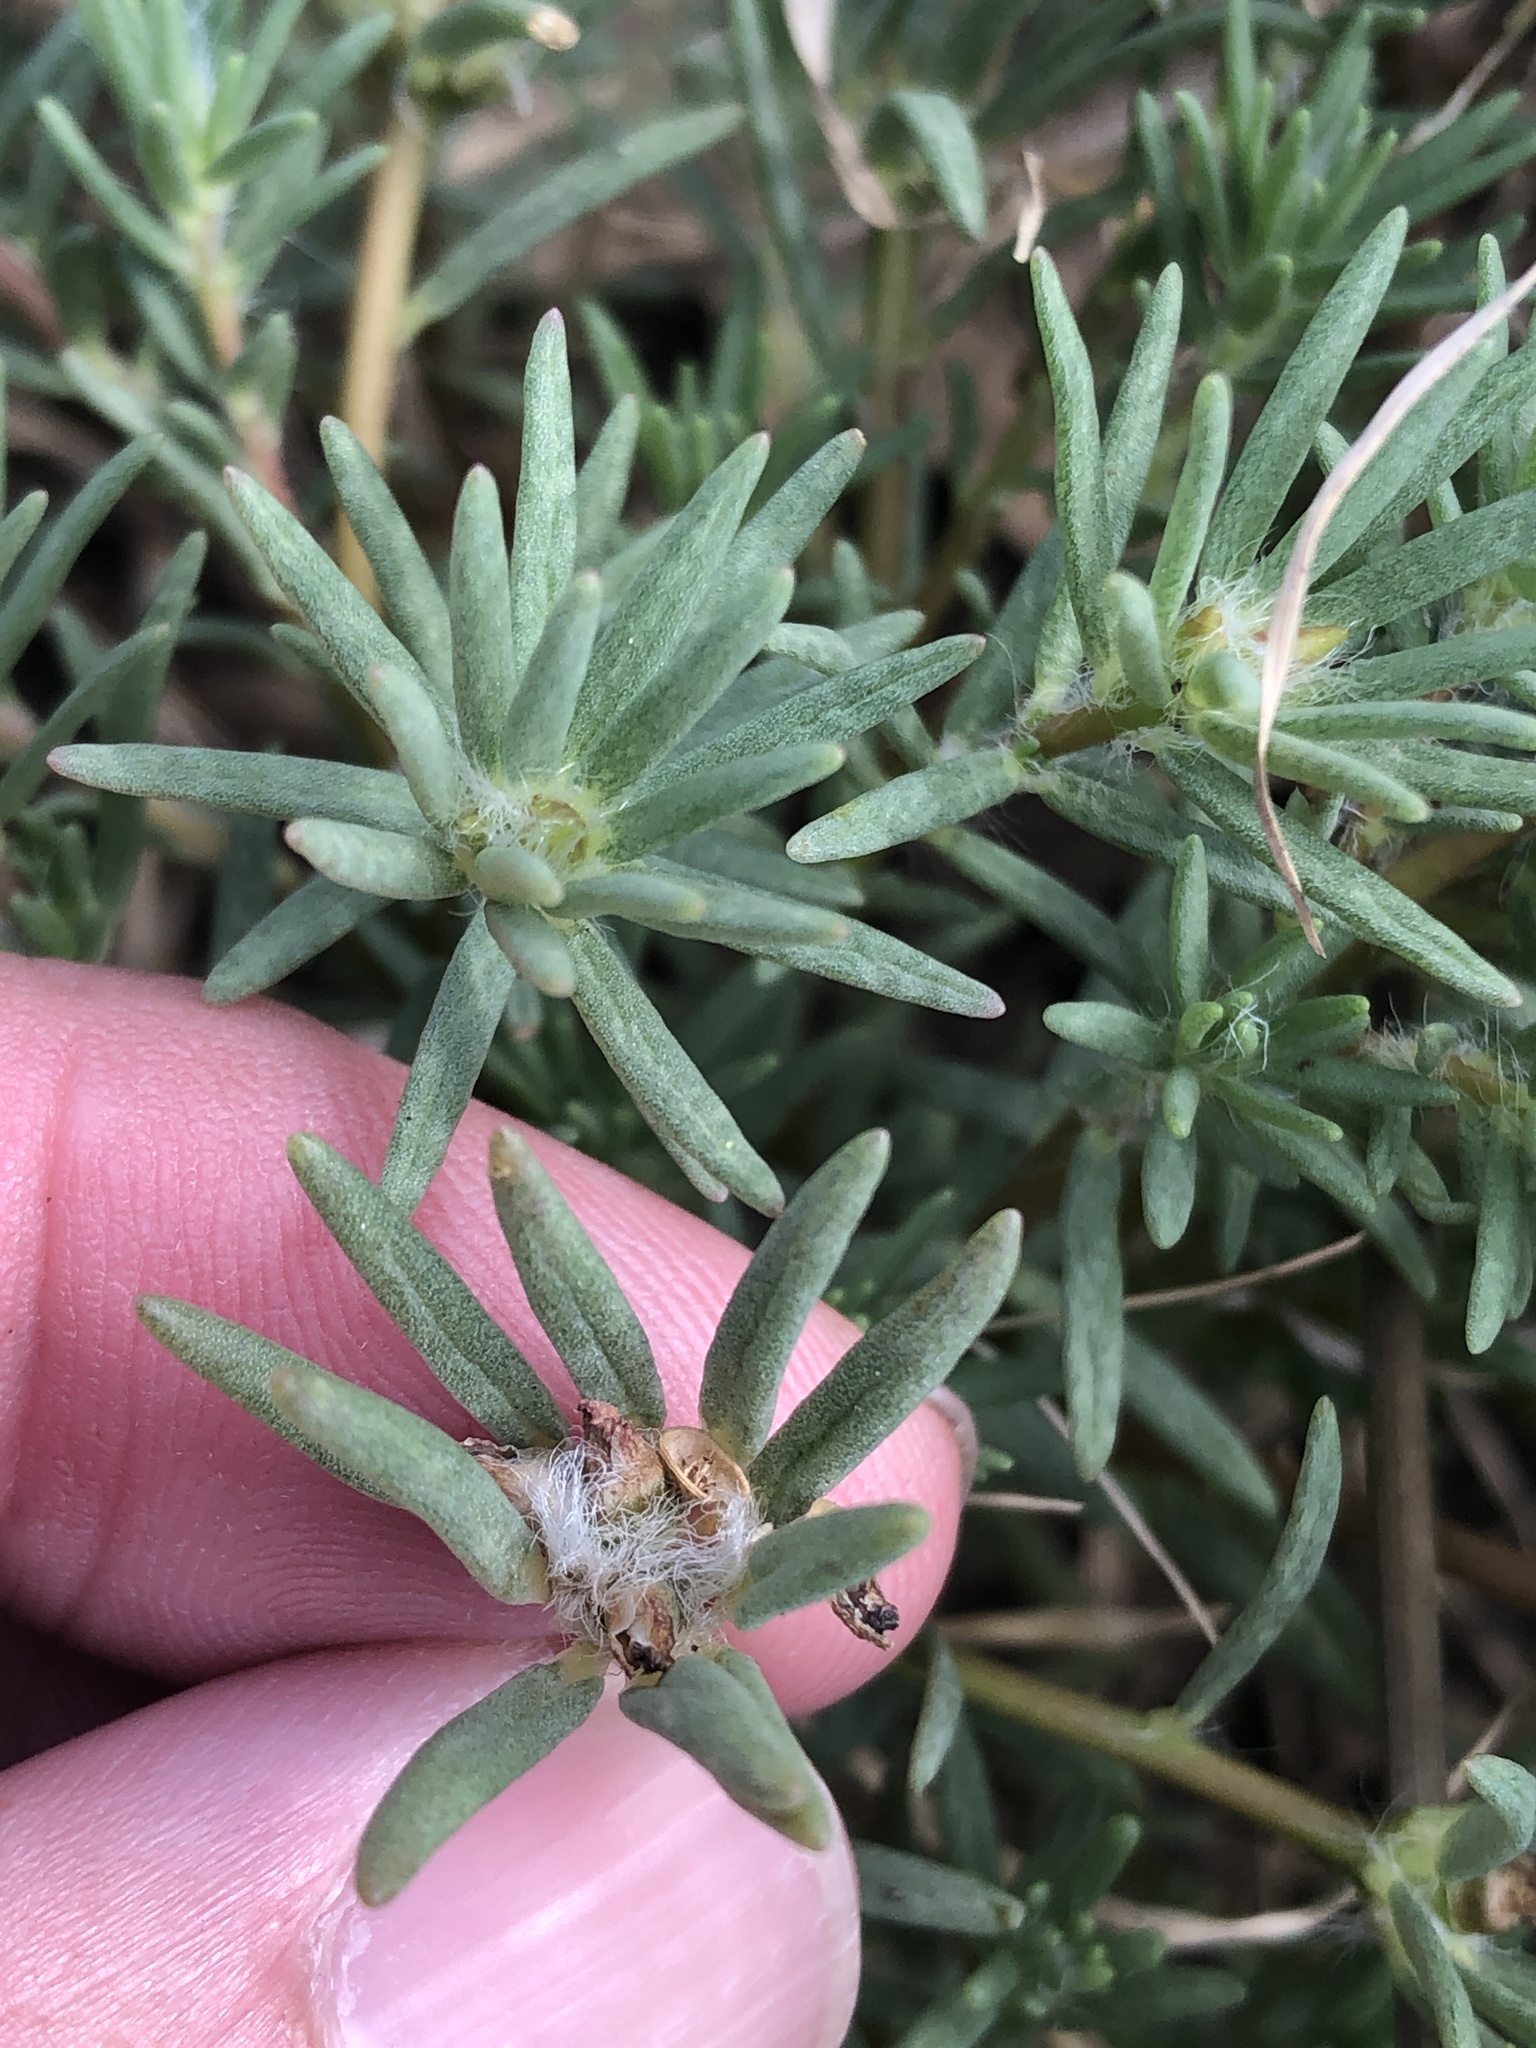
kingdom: Plantae
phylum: Tracheophyta
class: Magnoliopsida
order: Caryophyllales
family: Portulacaceae
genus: Portulaca
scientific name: Portulaca pilosa
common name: Kiss me quick
